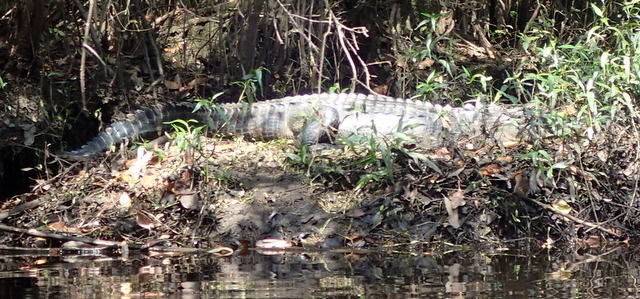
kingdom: Animalia
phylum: Chordata
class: Crocodylia
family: Alligatoridae
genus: Alligator
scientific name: Alligator mississippiensis
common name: American alligator
